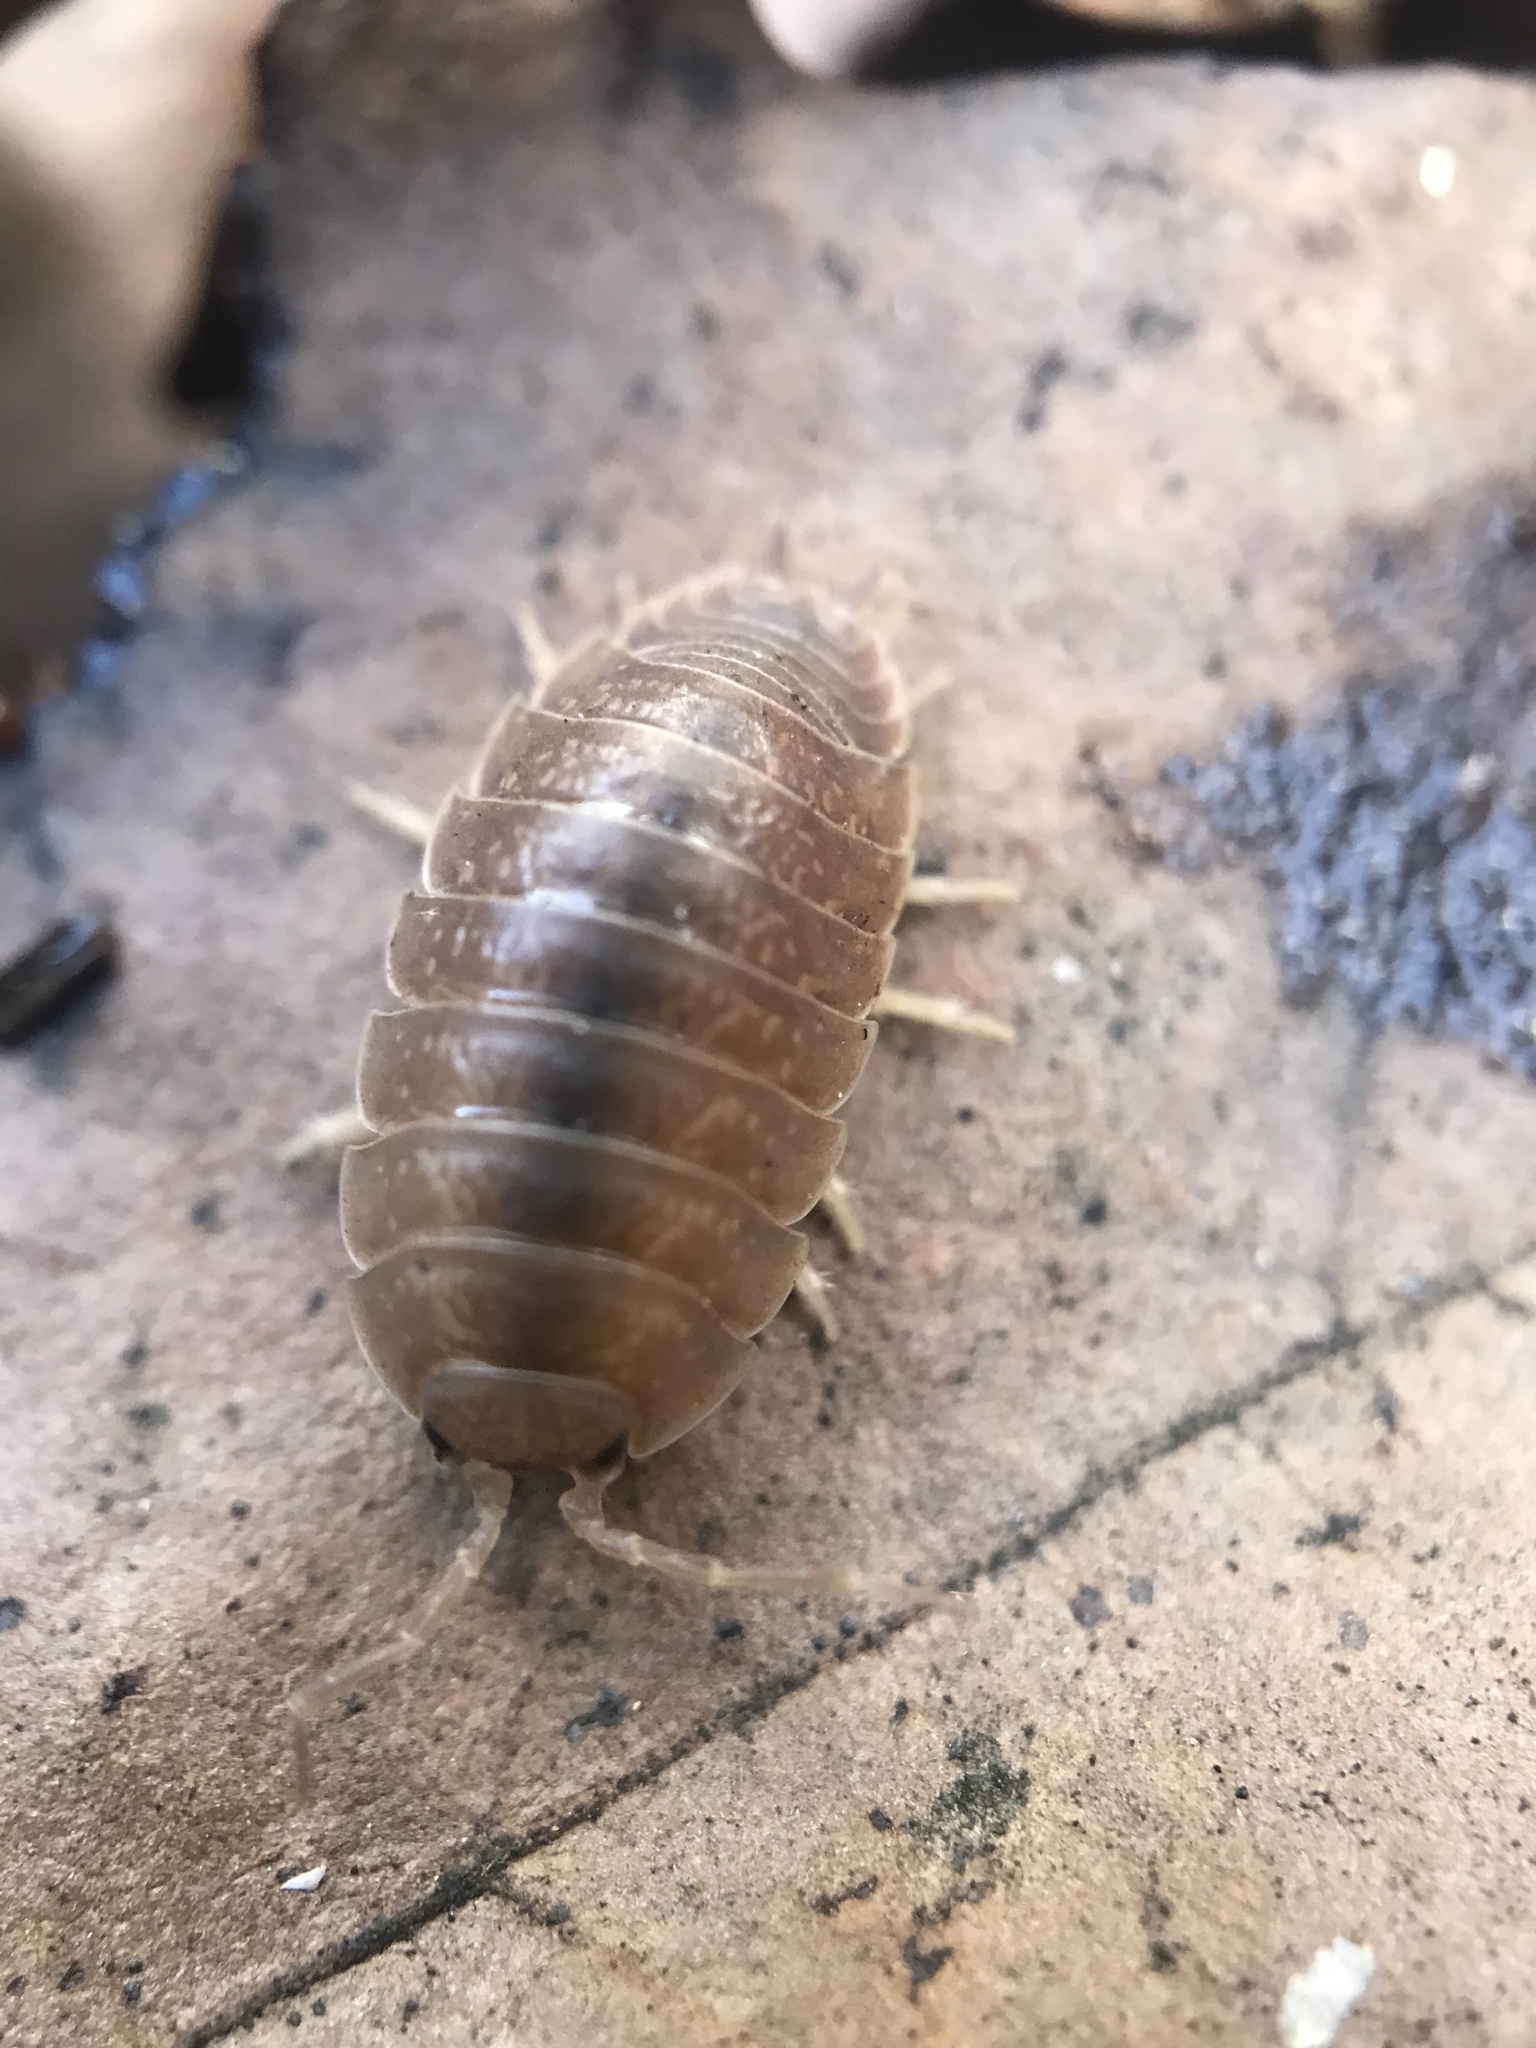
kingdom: Animalia
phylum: Arthropoda
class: Malacostraca
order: Isopoda
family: Porcellionidae
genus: Porcellio
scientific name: Porcellio laevis
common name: Swift woodlouse
